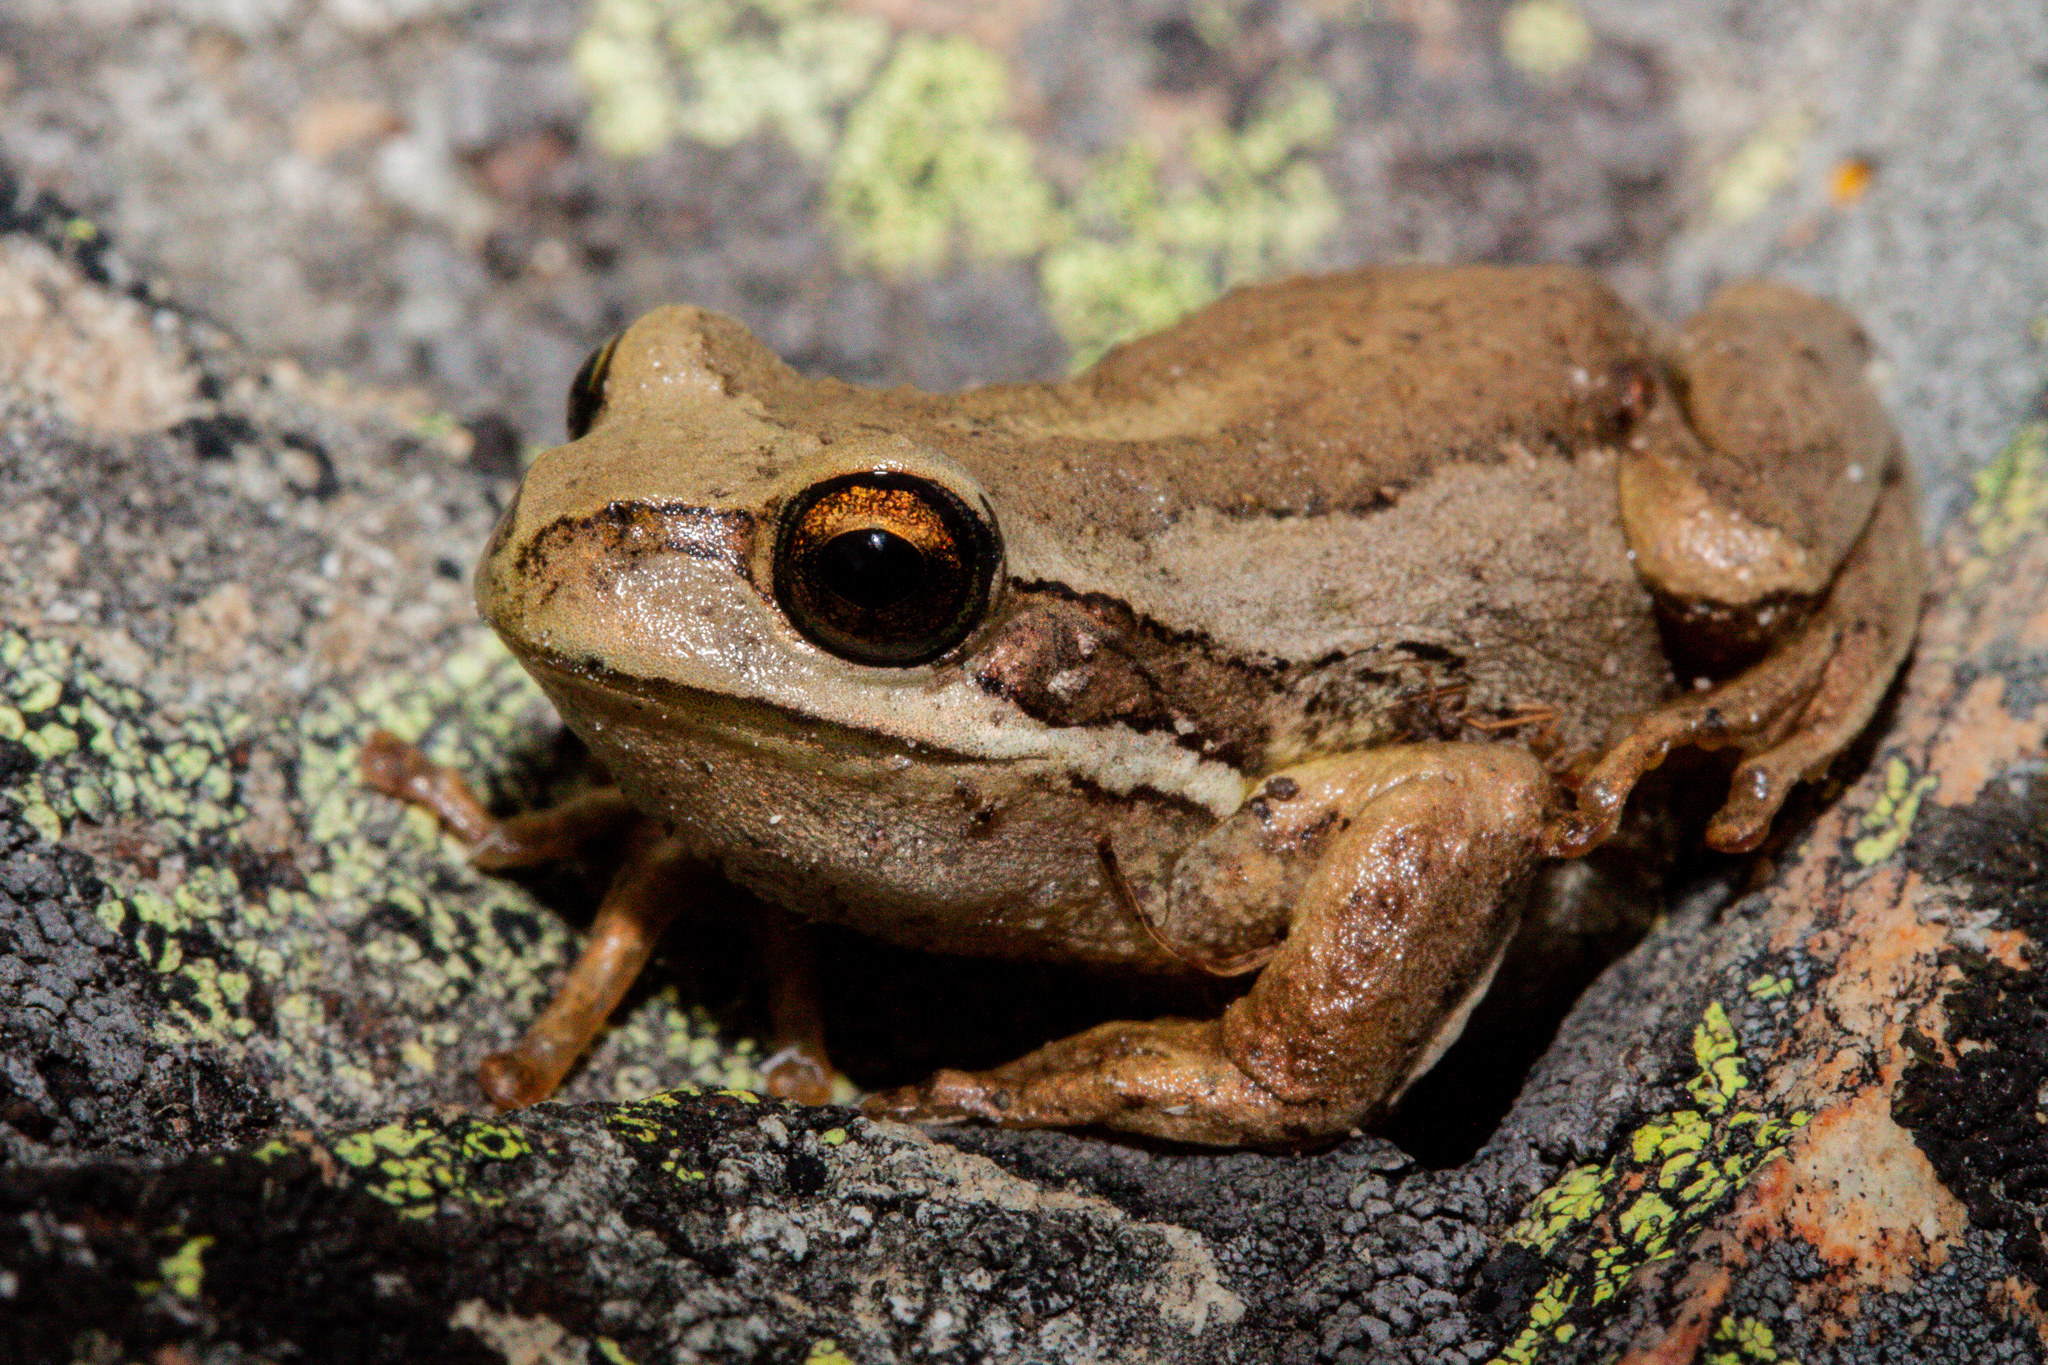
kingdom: Animalia
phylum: Chordata
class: Amphibia
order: Anura
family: Pelodryadidae
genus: Litoria
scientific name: Litoria ewingii
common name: Southern brown tree frog
